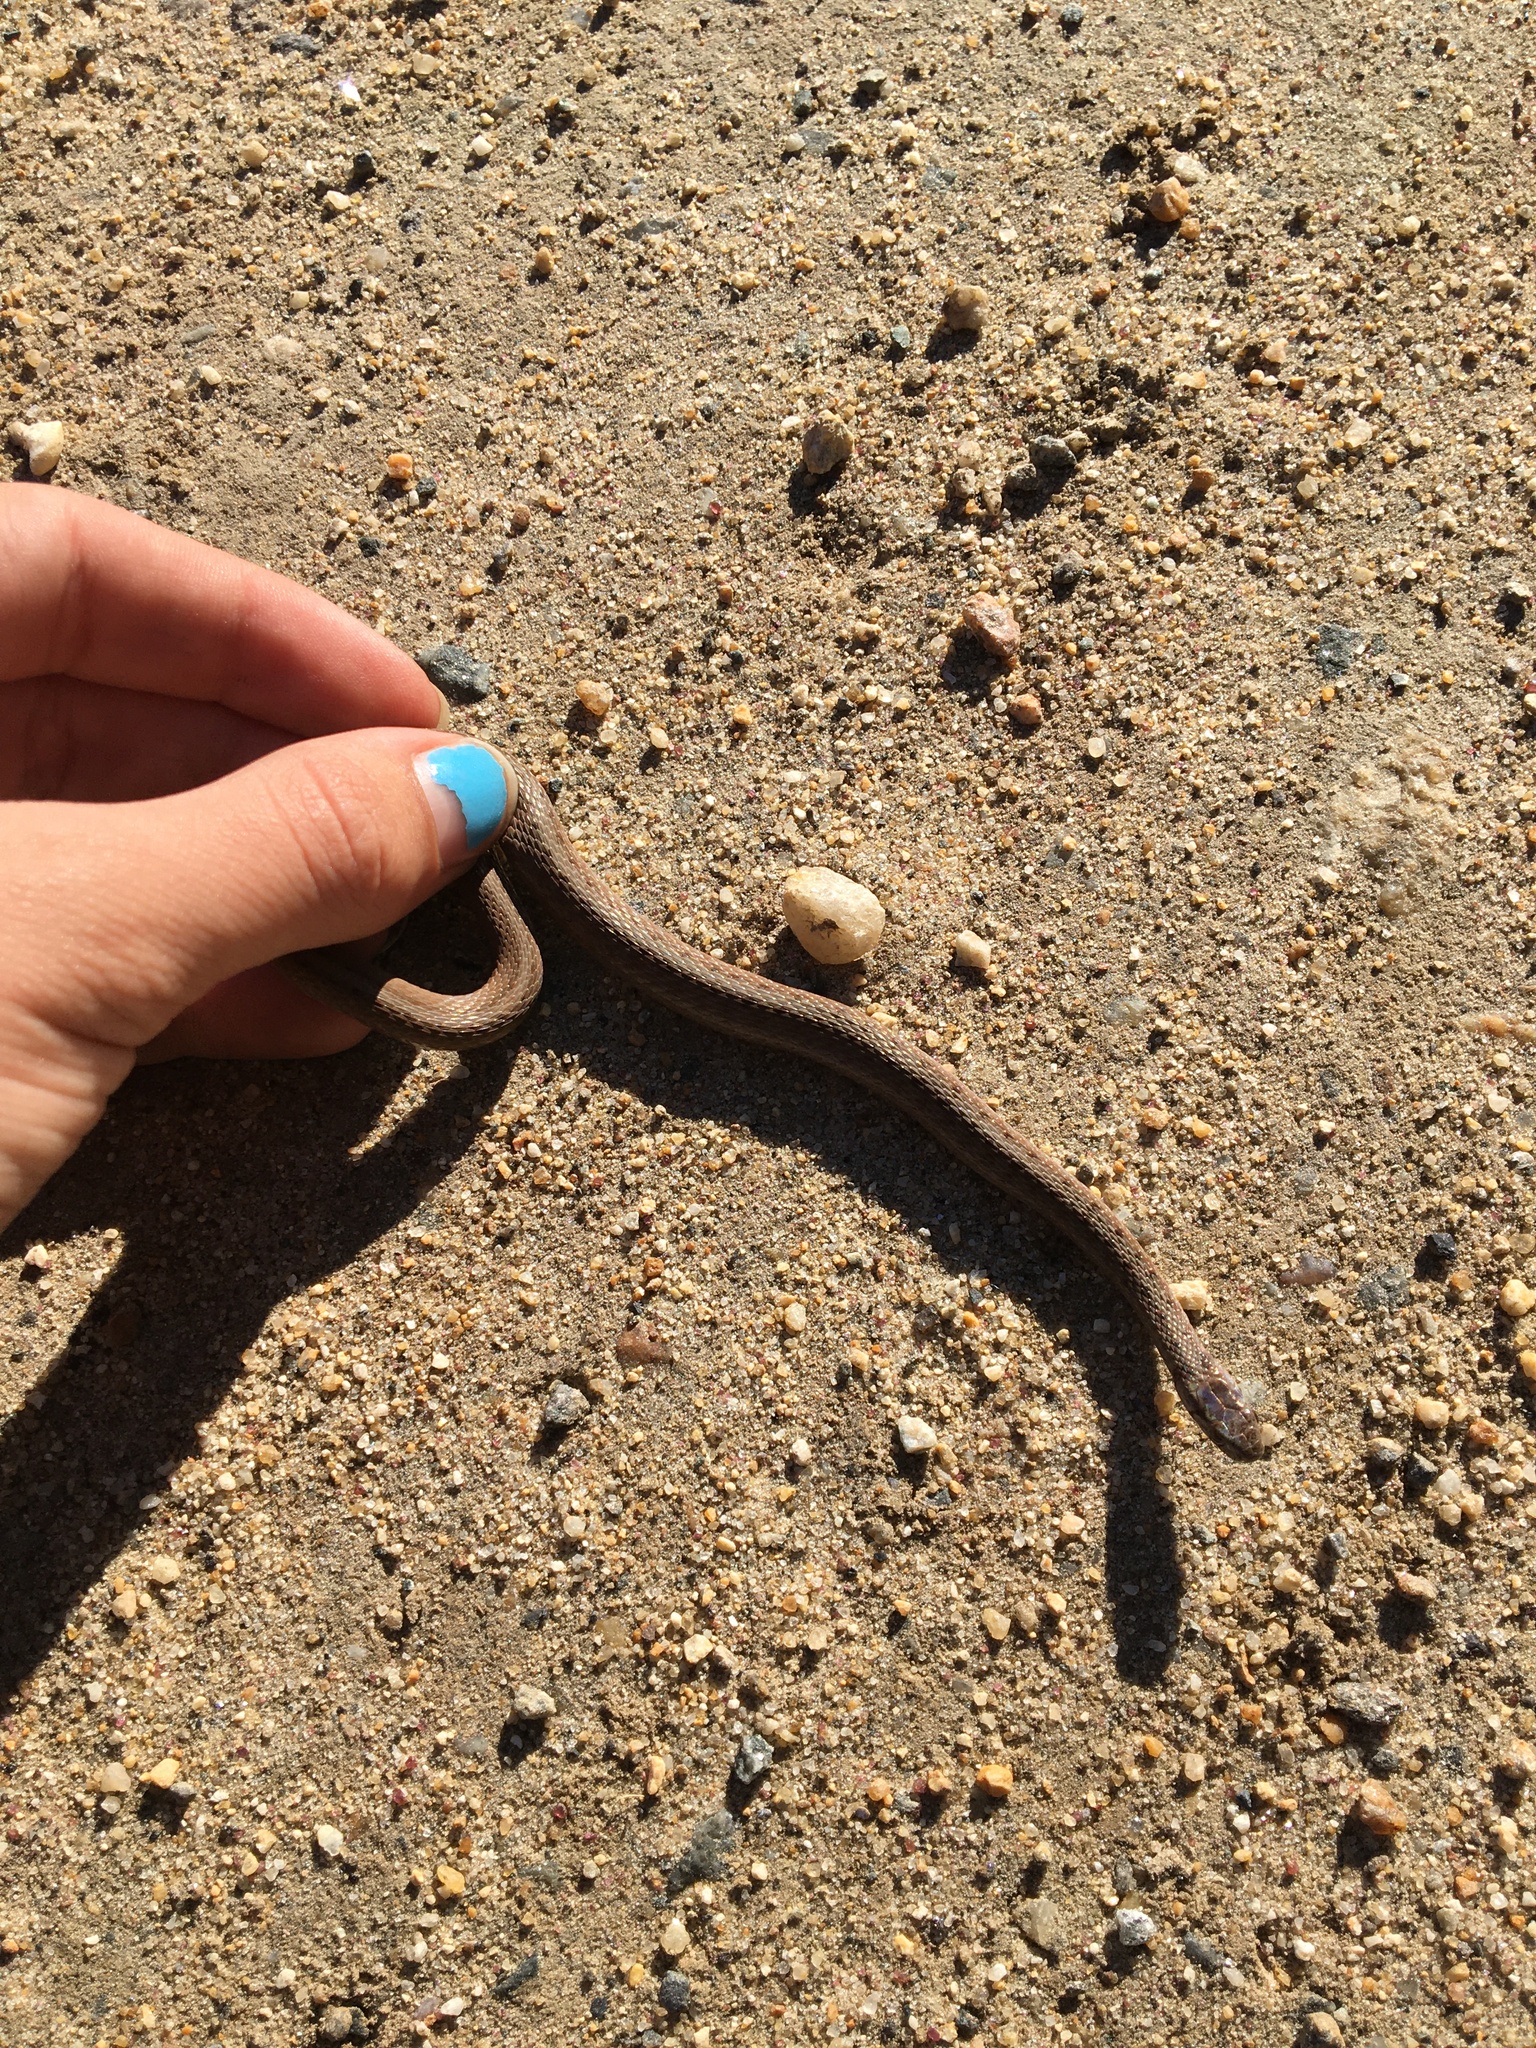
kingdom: Animalia
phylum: Chordata
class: Squamata
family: Colubridae
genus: Storeria
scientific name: Storeria dekayi
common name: (dekay’s) brown snake
